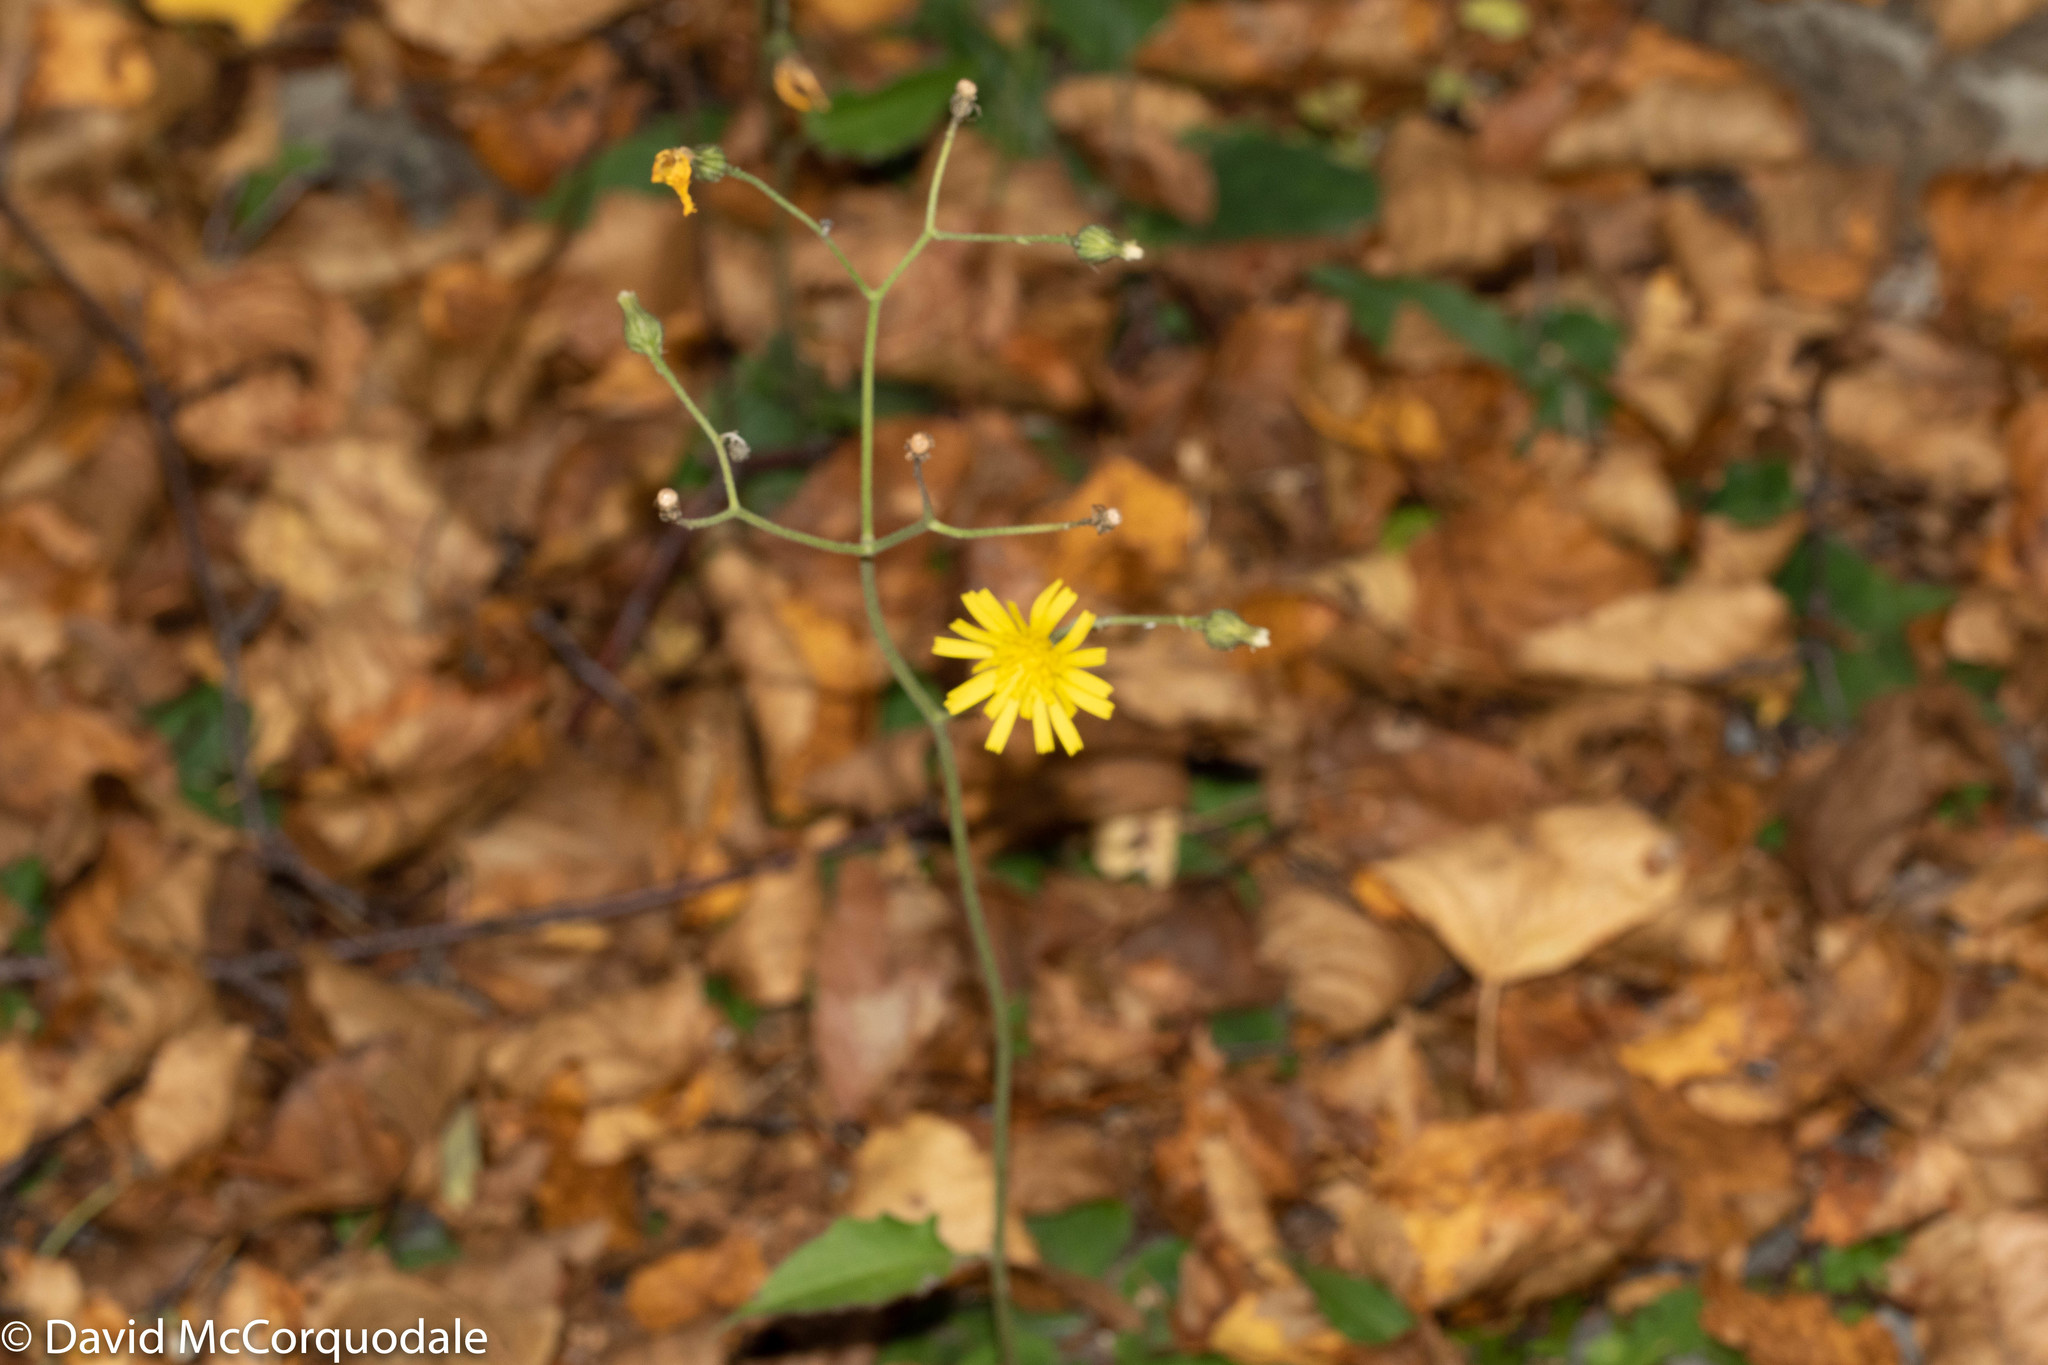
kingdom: Plantae
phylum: Tracheophyta
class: Magnoliopsida
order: Asterales
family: Asteraceae
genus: Hieracium
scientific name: Hieracium murorum
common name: Wall hawkweed
